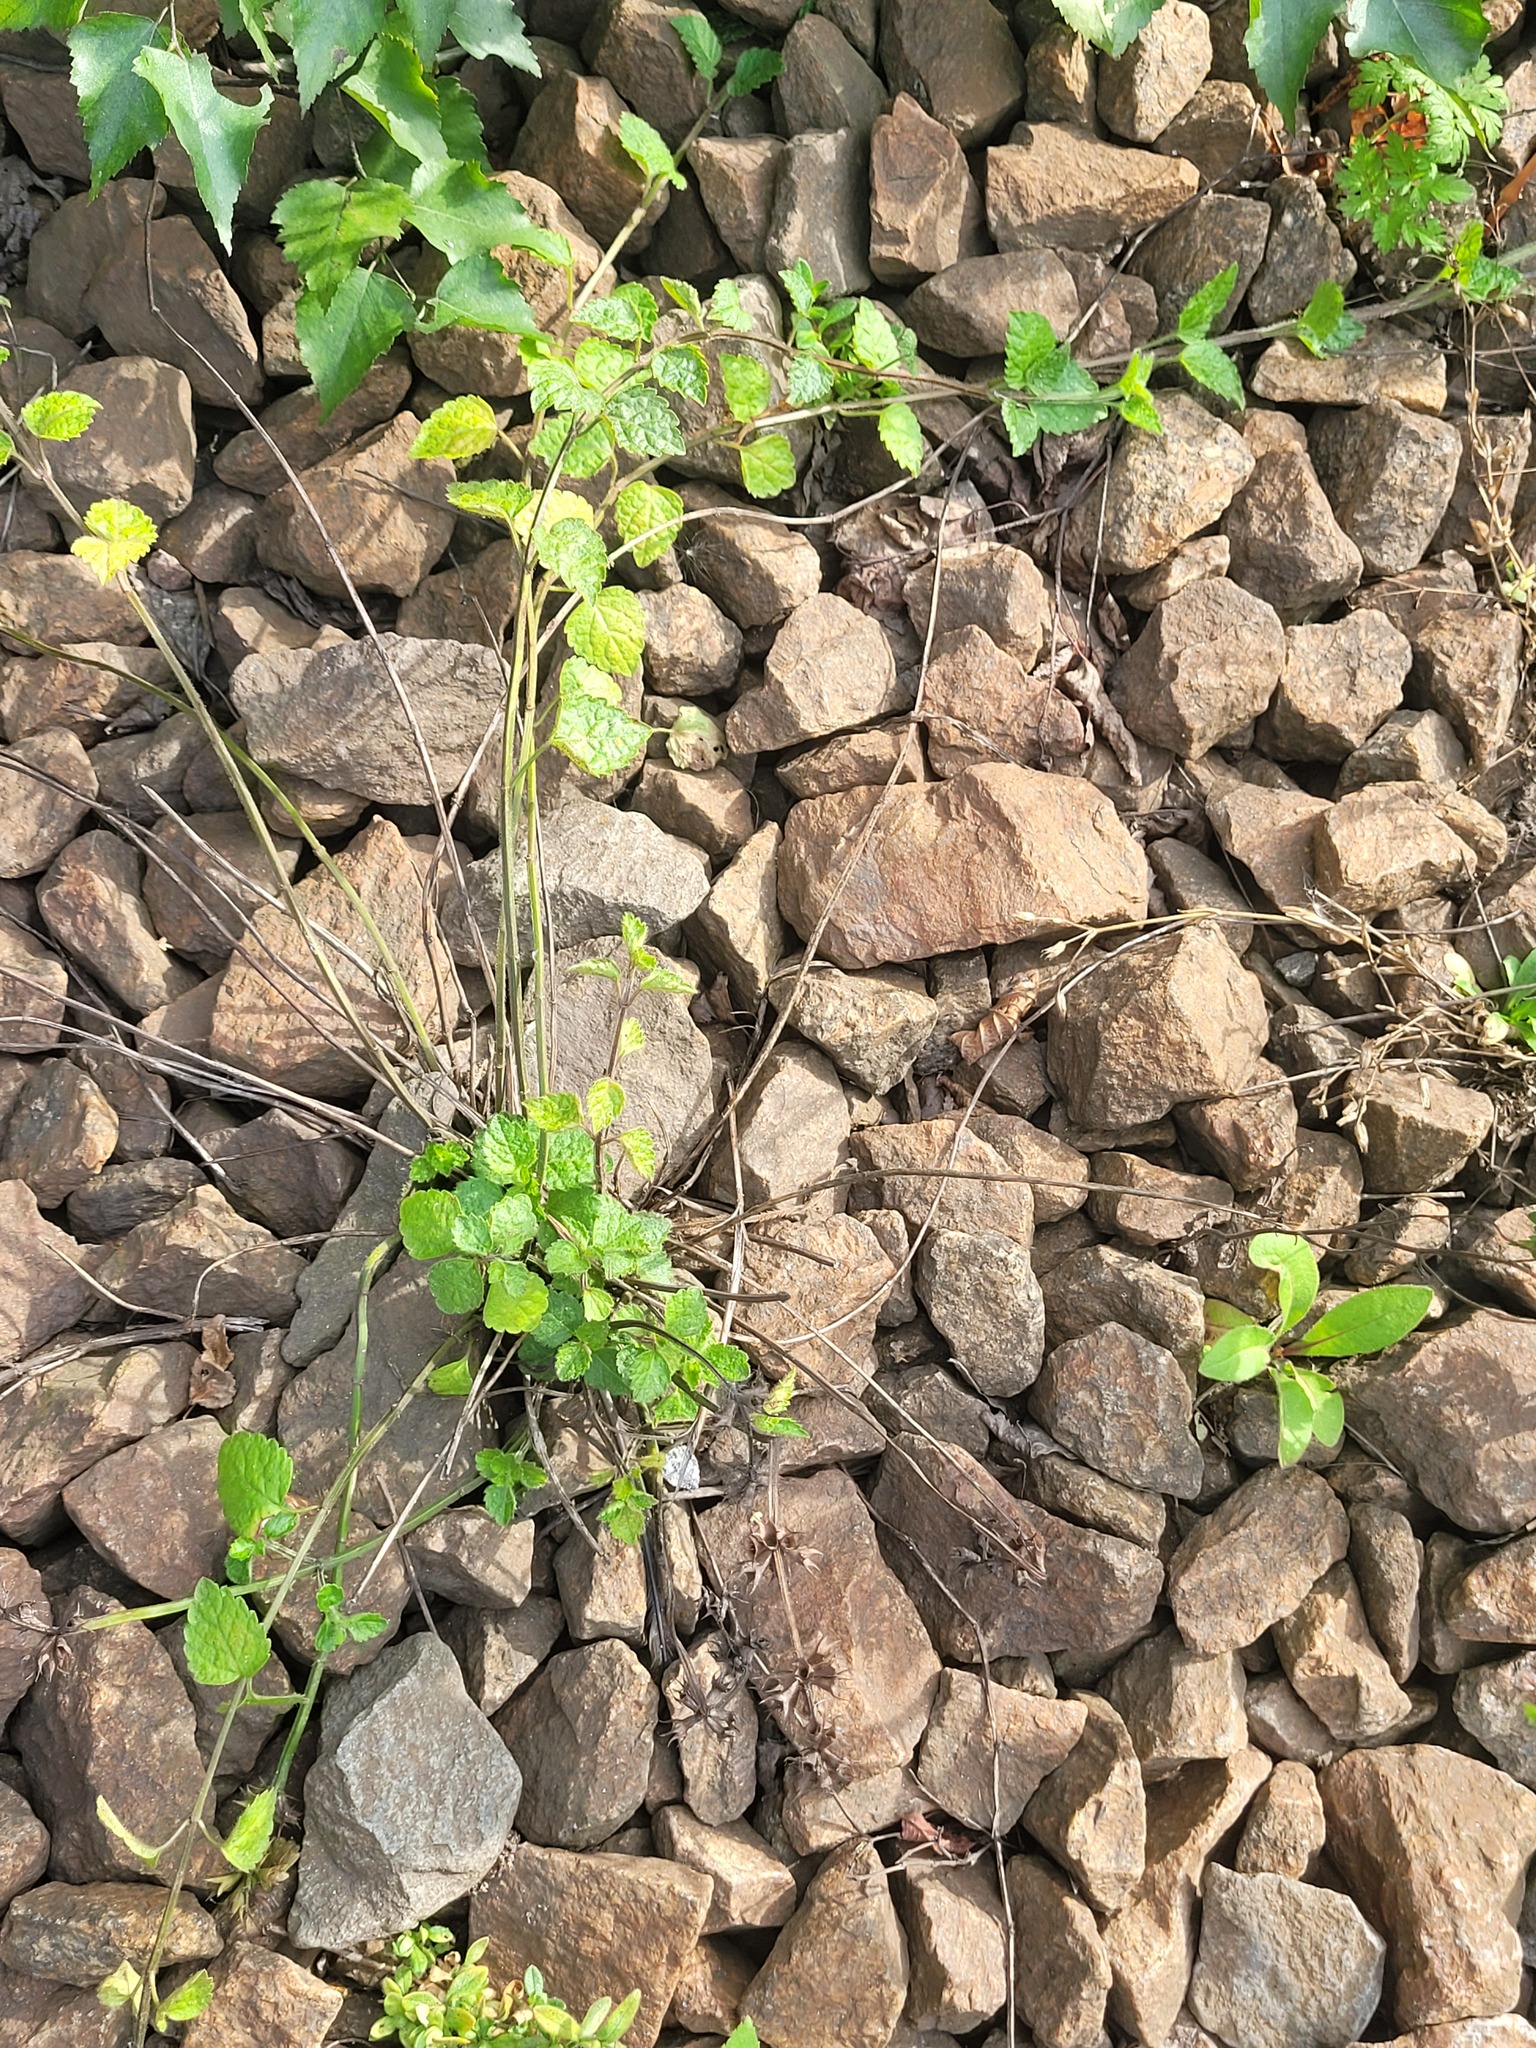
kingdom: Plantae
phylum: Tracheophyta
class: Magnoliopsida
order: Lamiales
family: Lamiaceae
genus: Lamium
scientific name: Lamium galeobdolon
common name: Yellow archangel
